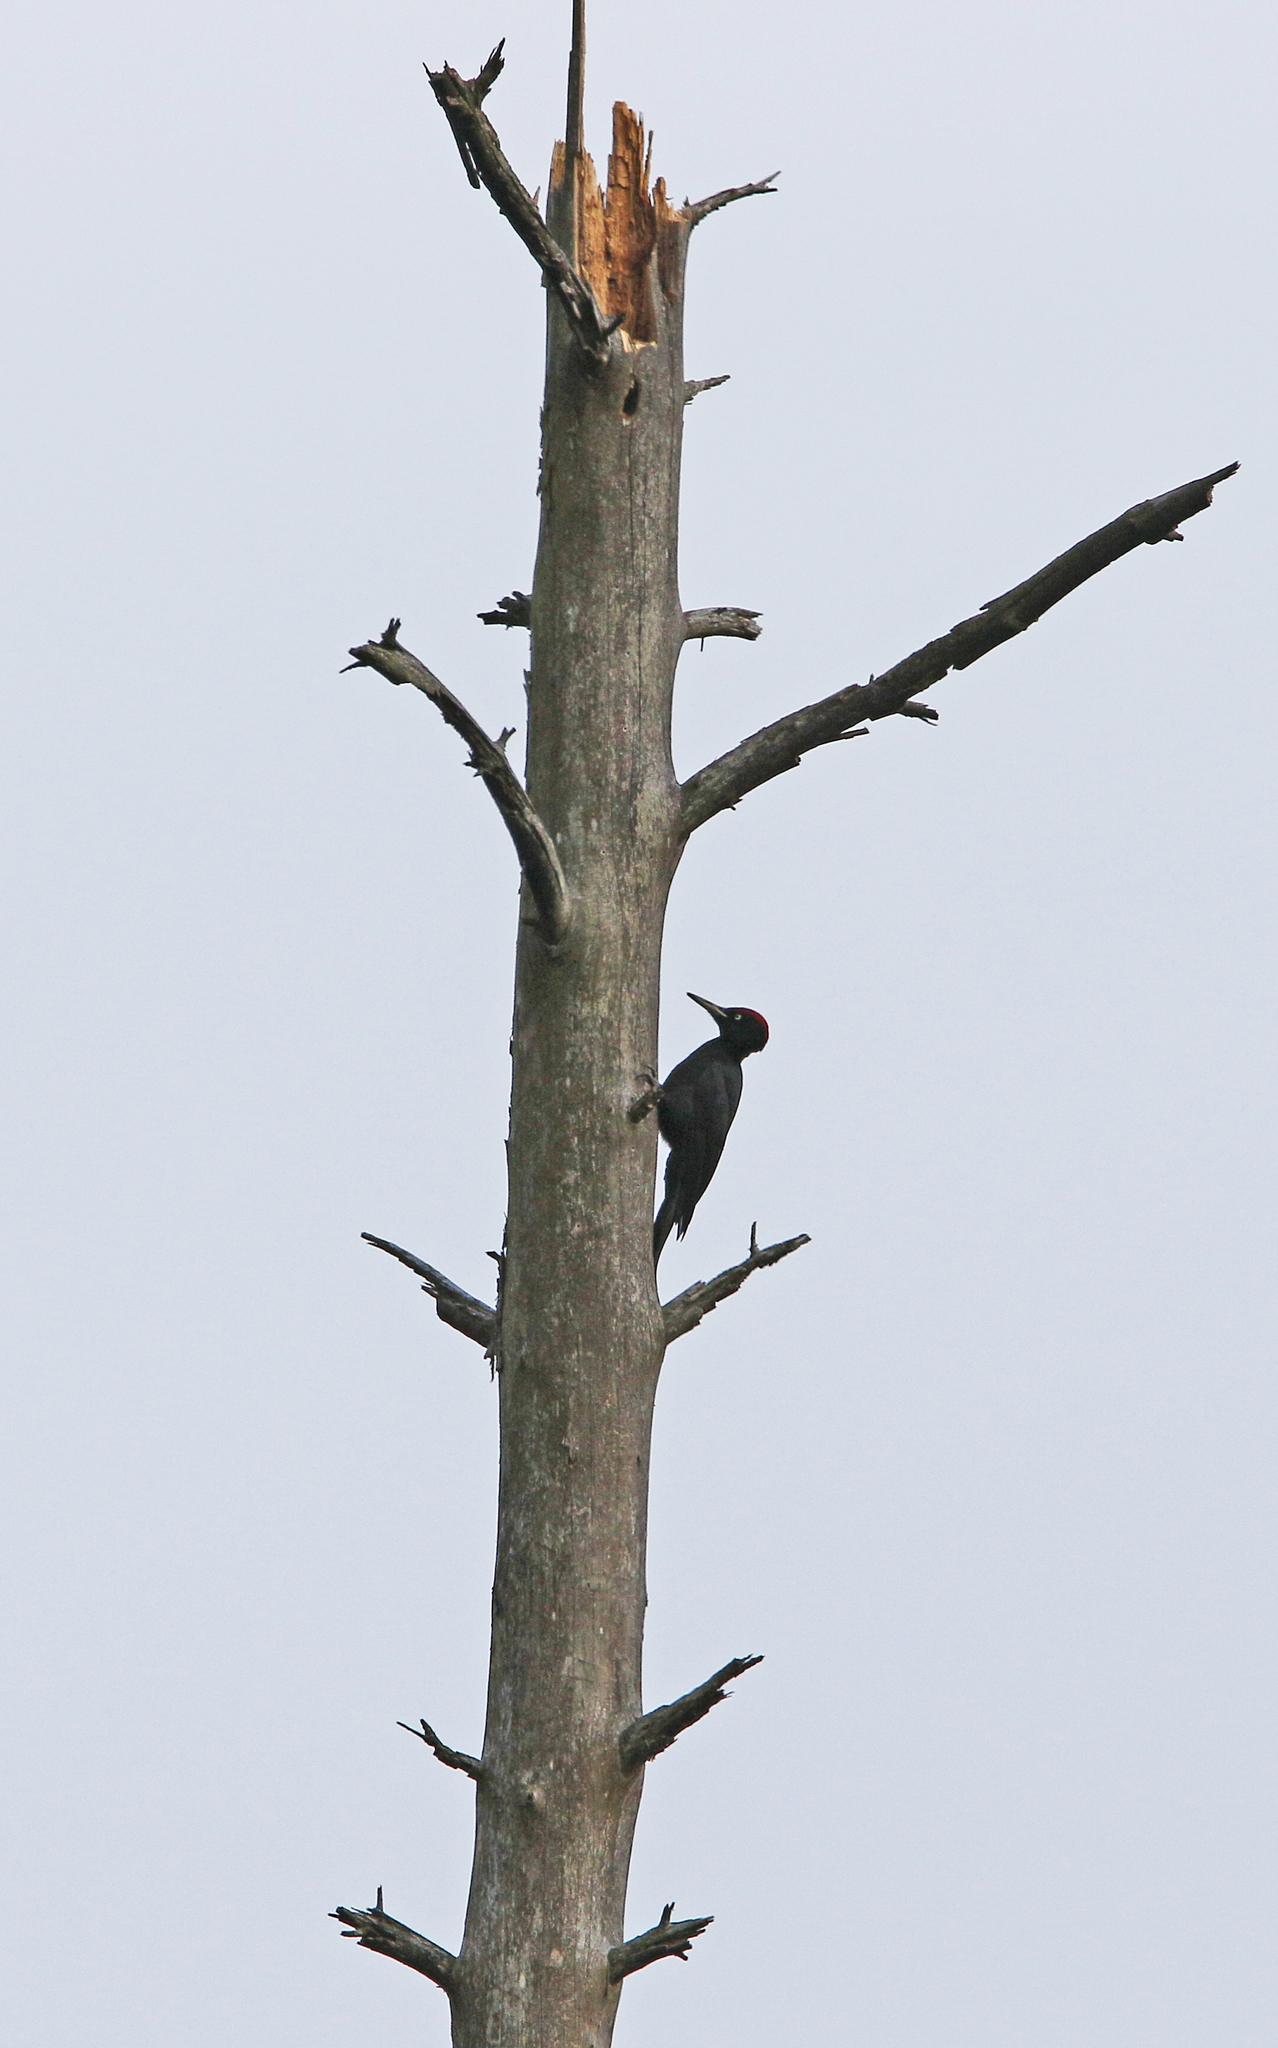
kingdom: Animalia
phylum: Chordata
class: Aves
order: Piciformes
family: Picidae
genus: Dryocopus
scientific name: Dryocopus martius
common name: Black woodpecker
